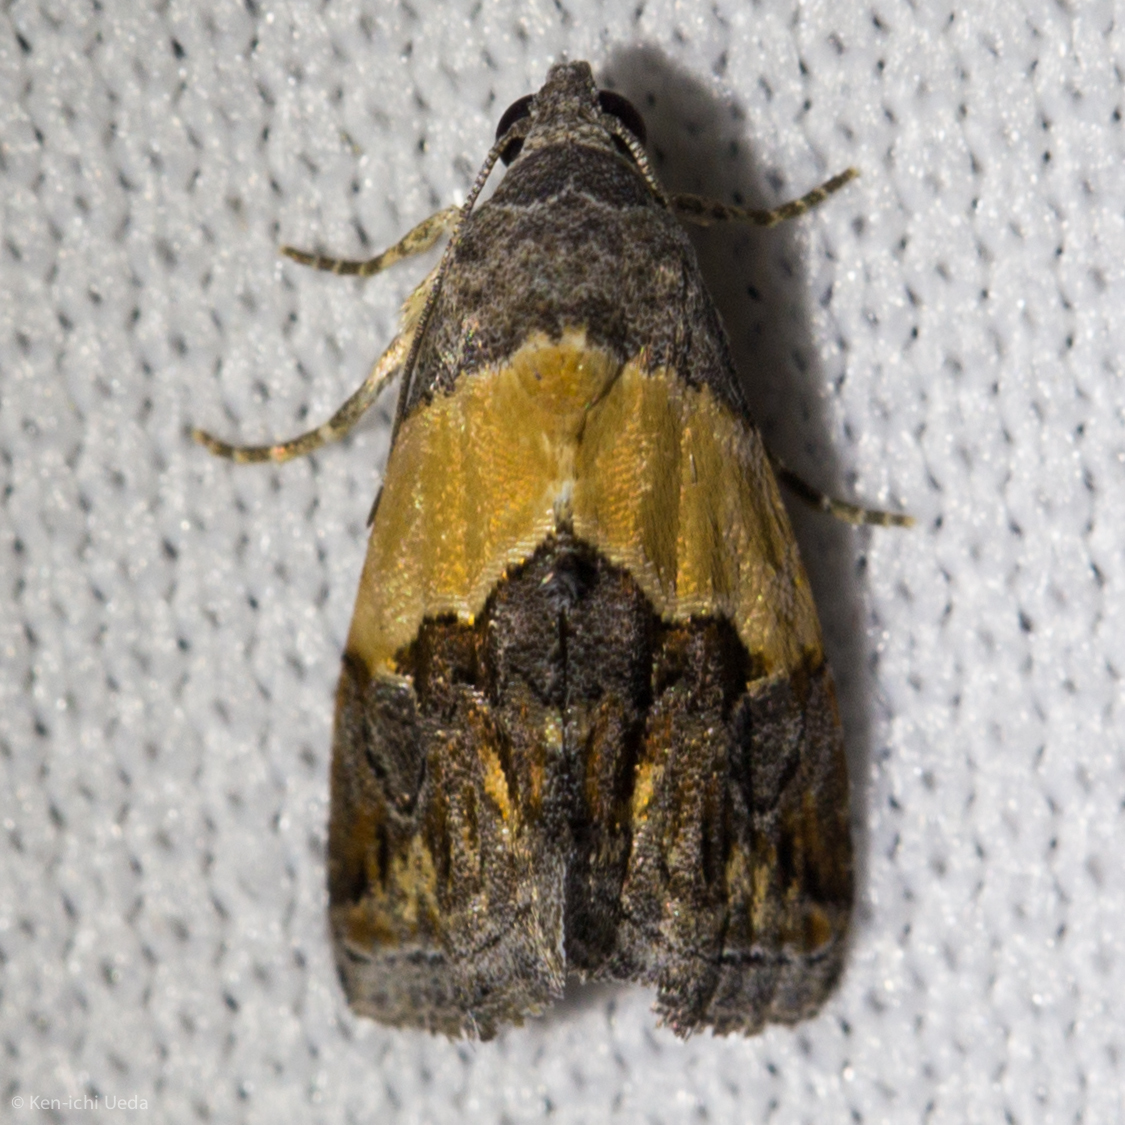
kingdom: Animalia
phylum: Arthropoda
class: Insecta
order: Lepidoptera
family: Noctuidae
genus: Tripudia
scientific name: Tripudia balteata
